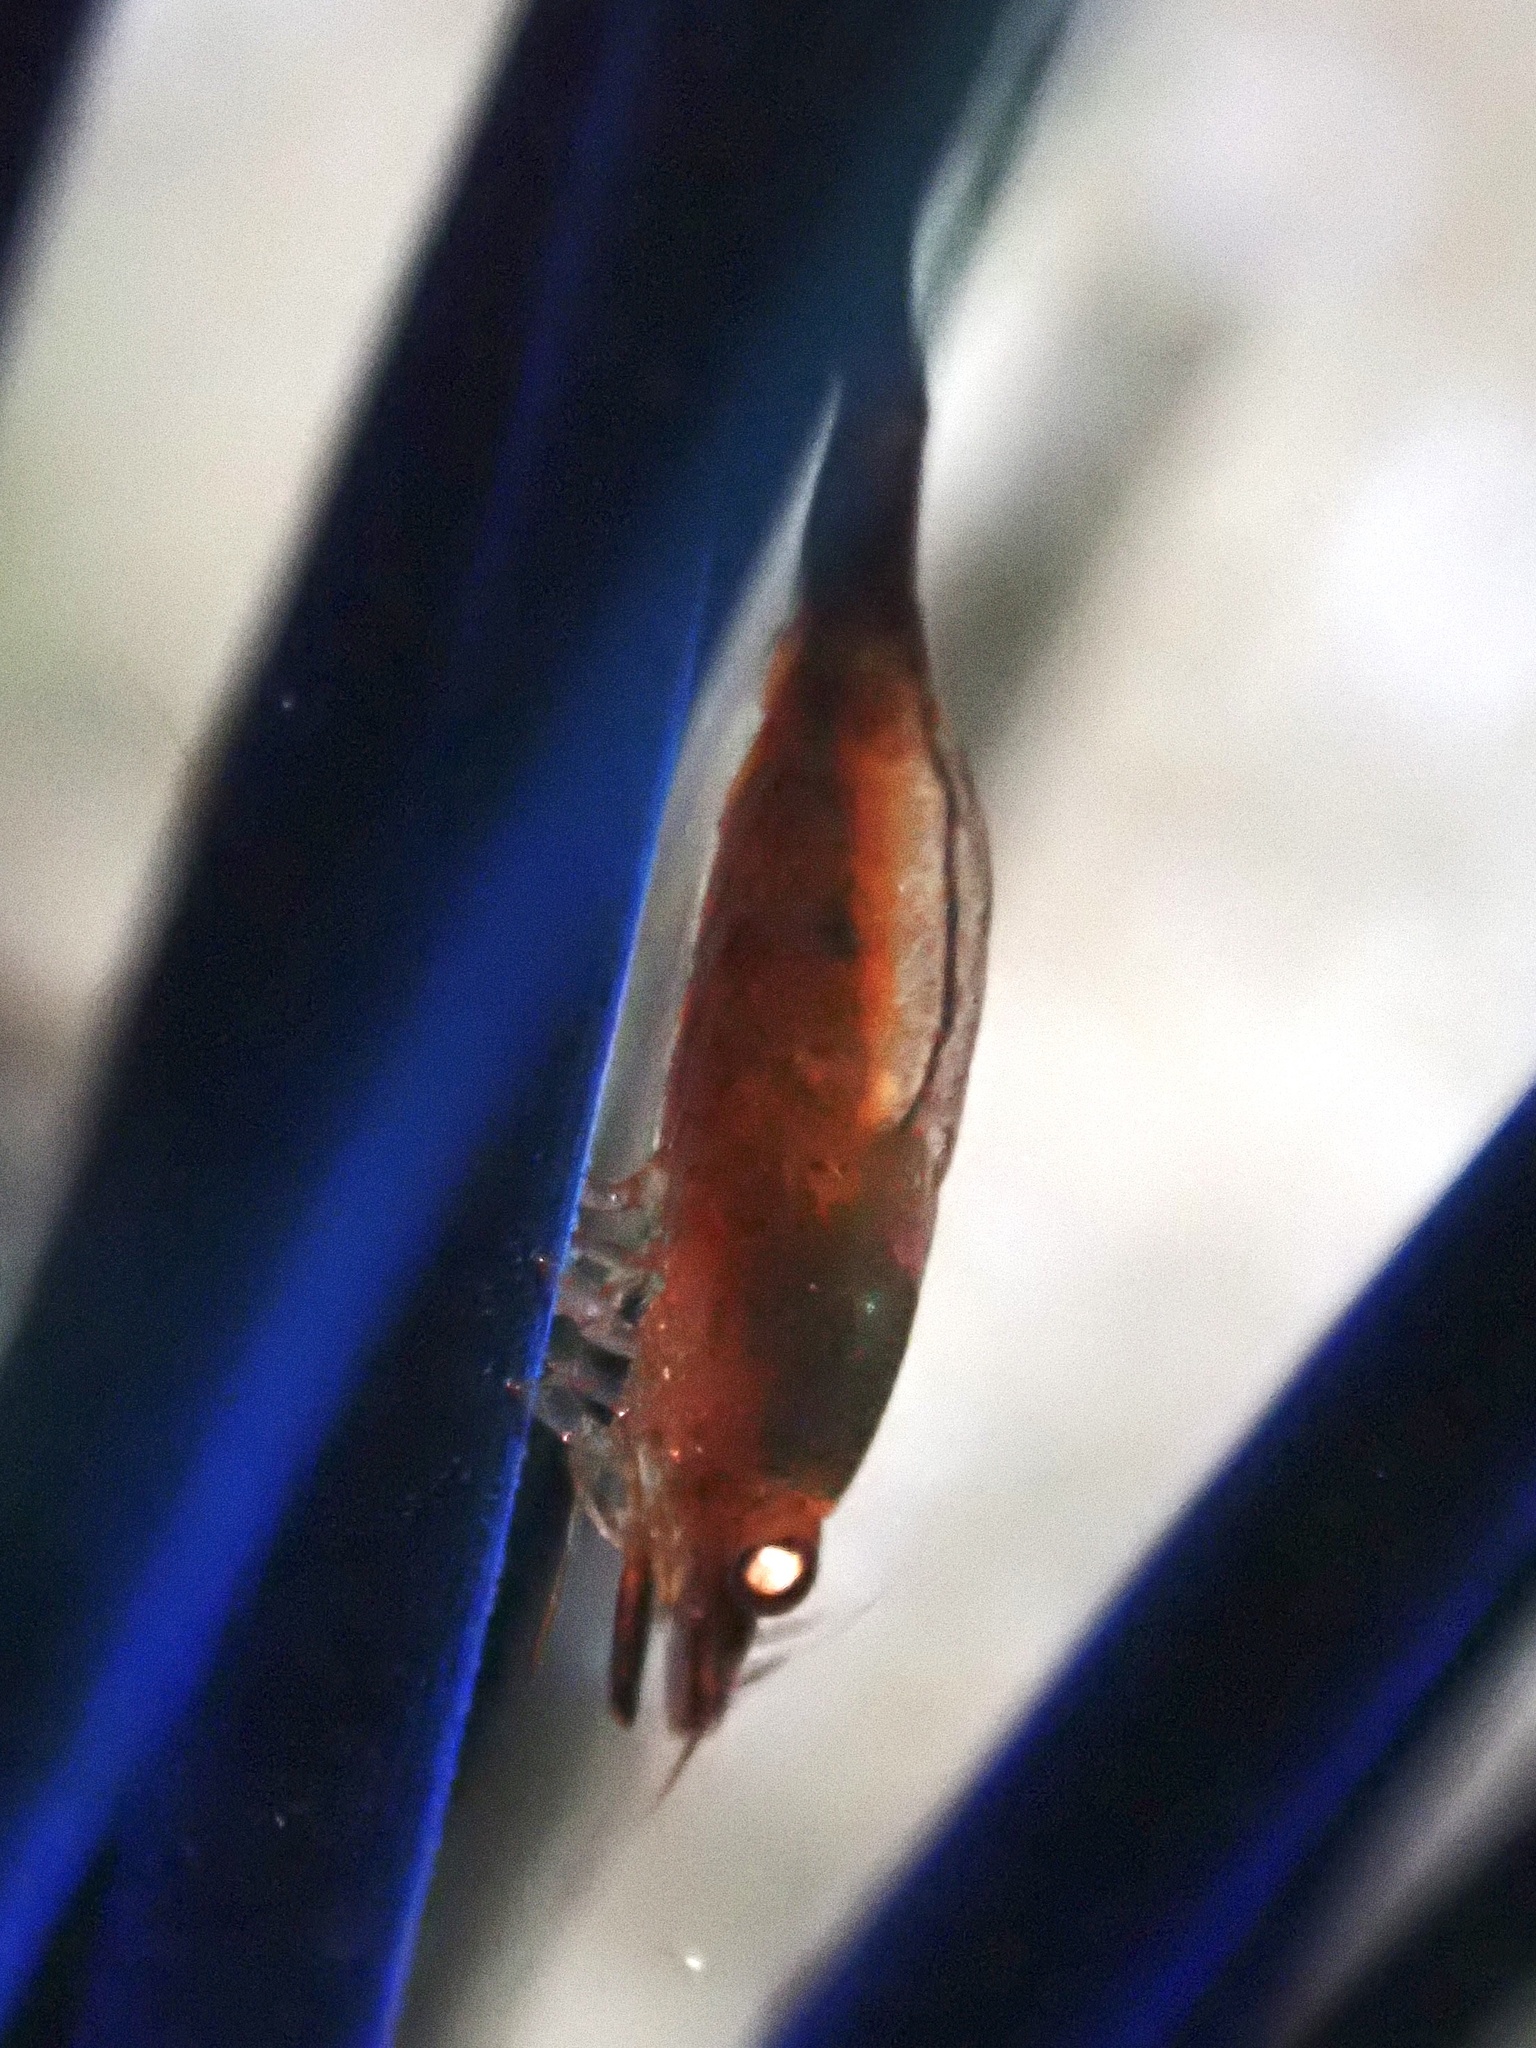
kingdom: Animalia
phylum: Arthropoda
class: Malacostraca
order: Decapoda
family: Palaemonidae
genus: Tuleariocaris
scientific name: Tuleariocaris holthuisi
